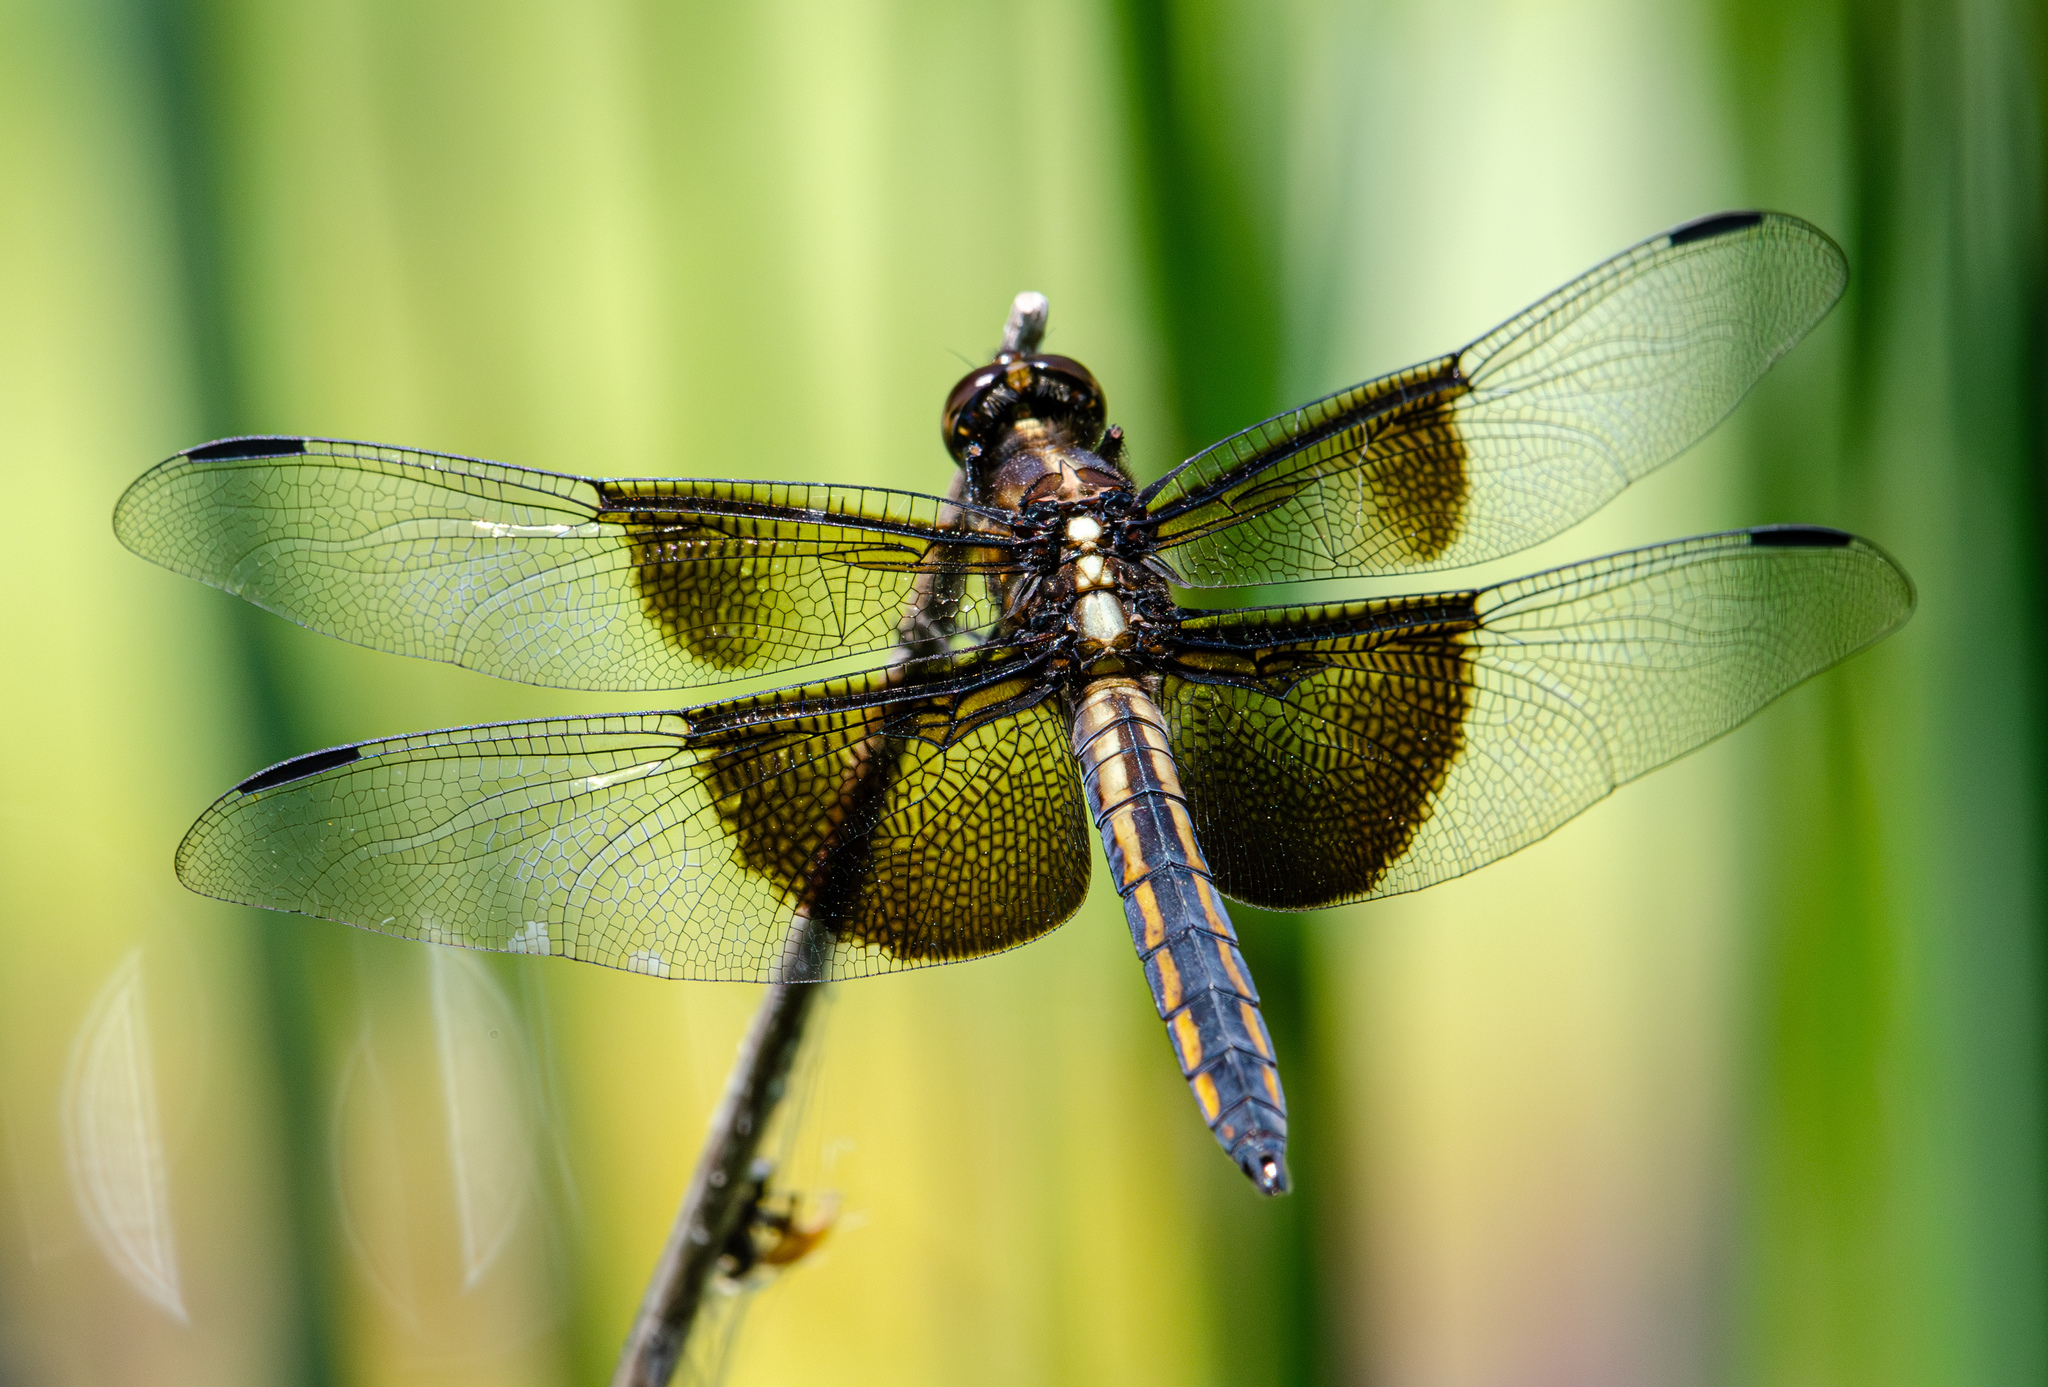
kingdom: Animalia
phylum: Arthropoda
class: Insecta
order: Odonata
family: Libellulidae
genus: Libellula
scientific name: Libellula luctuosa
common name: Widow skimmer
